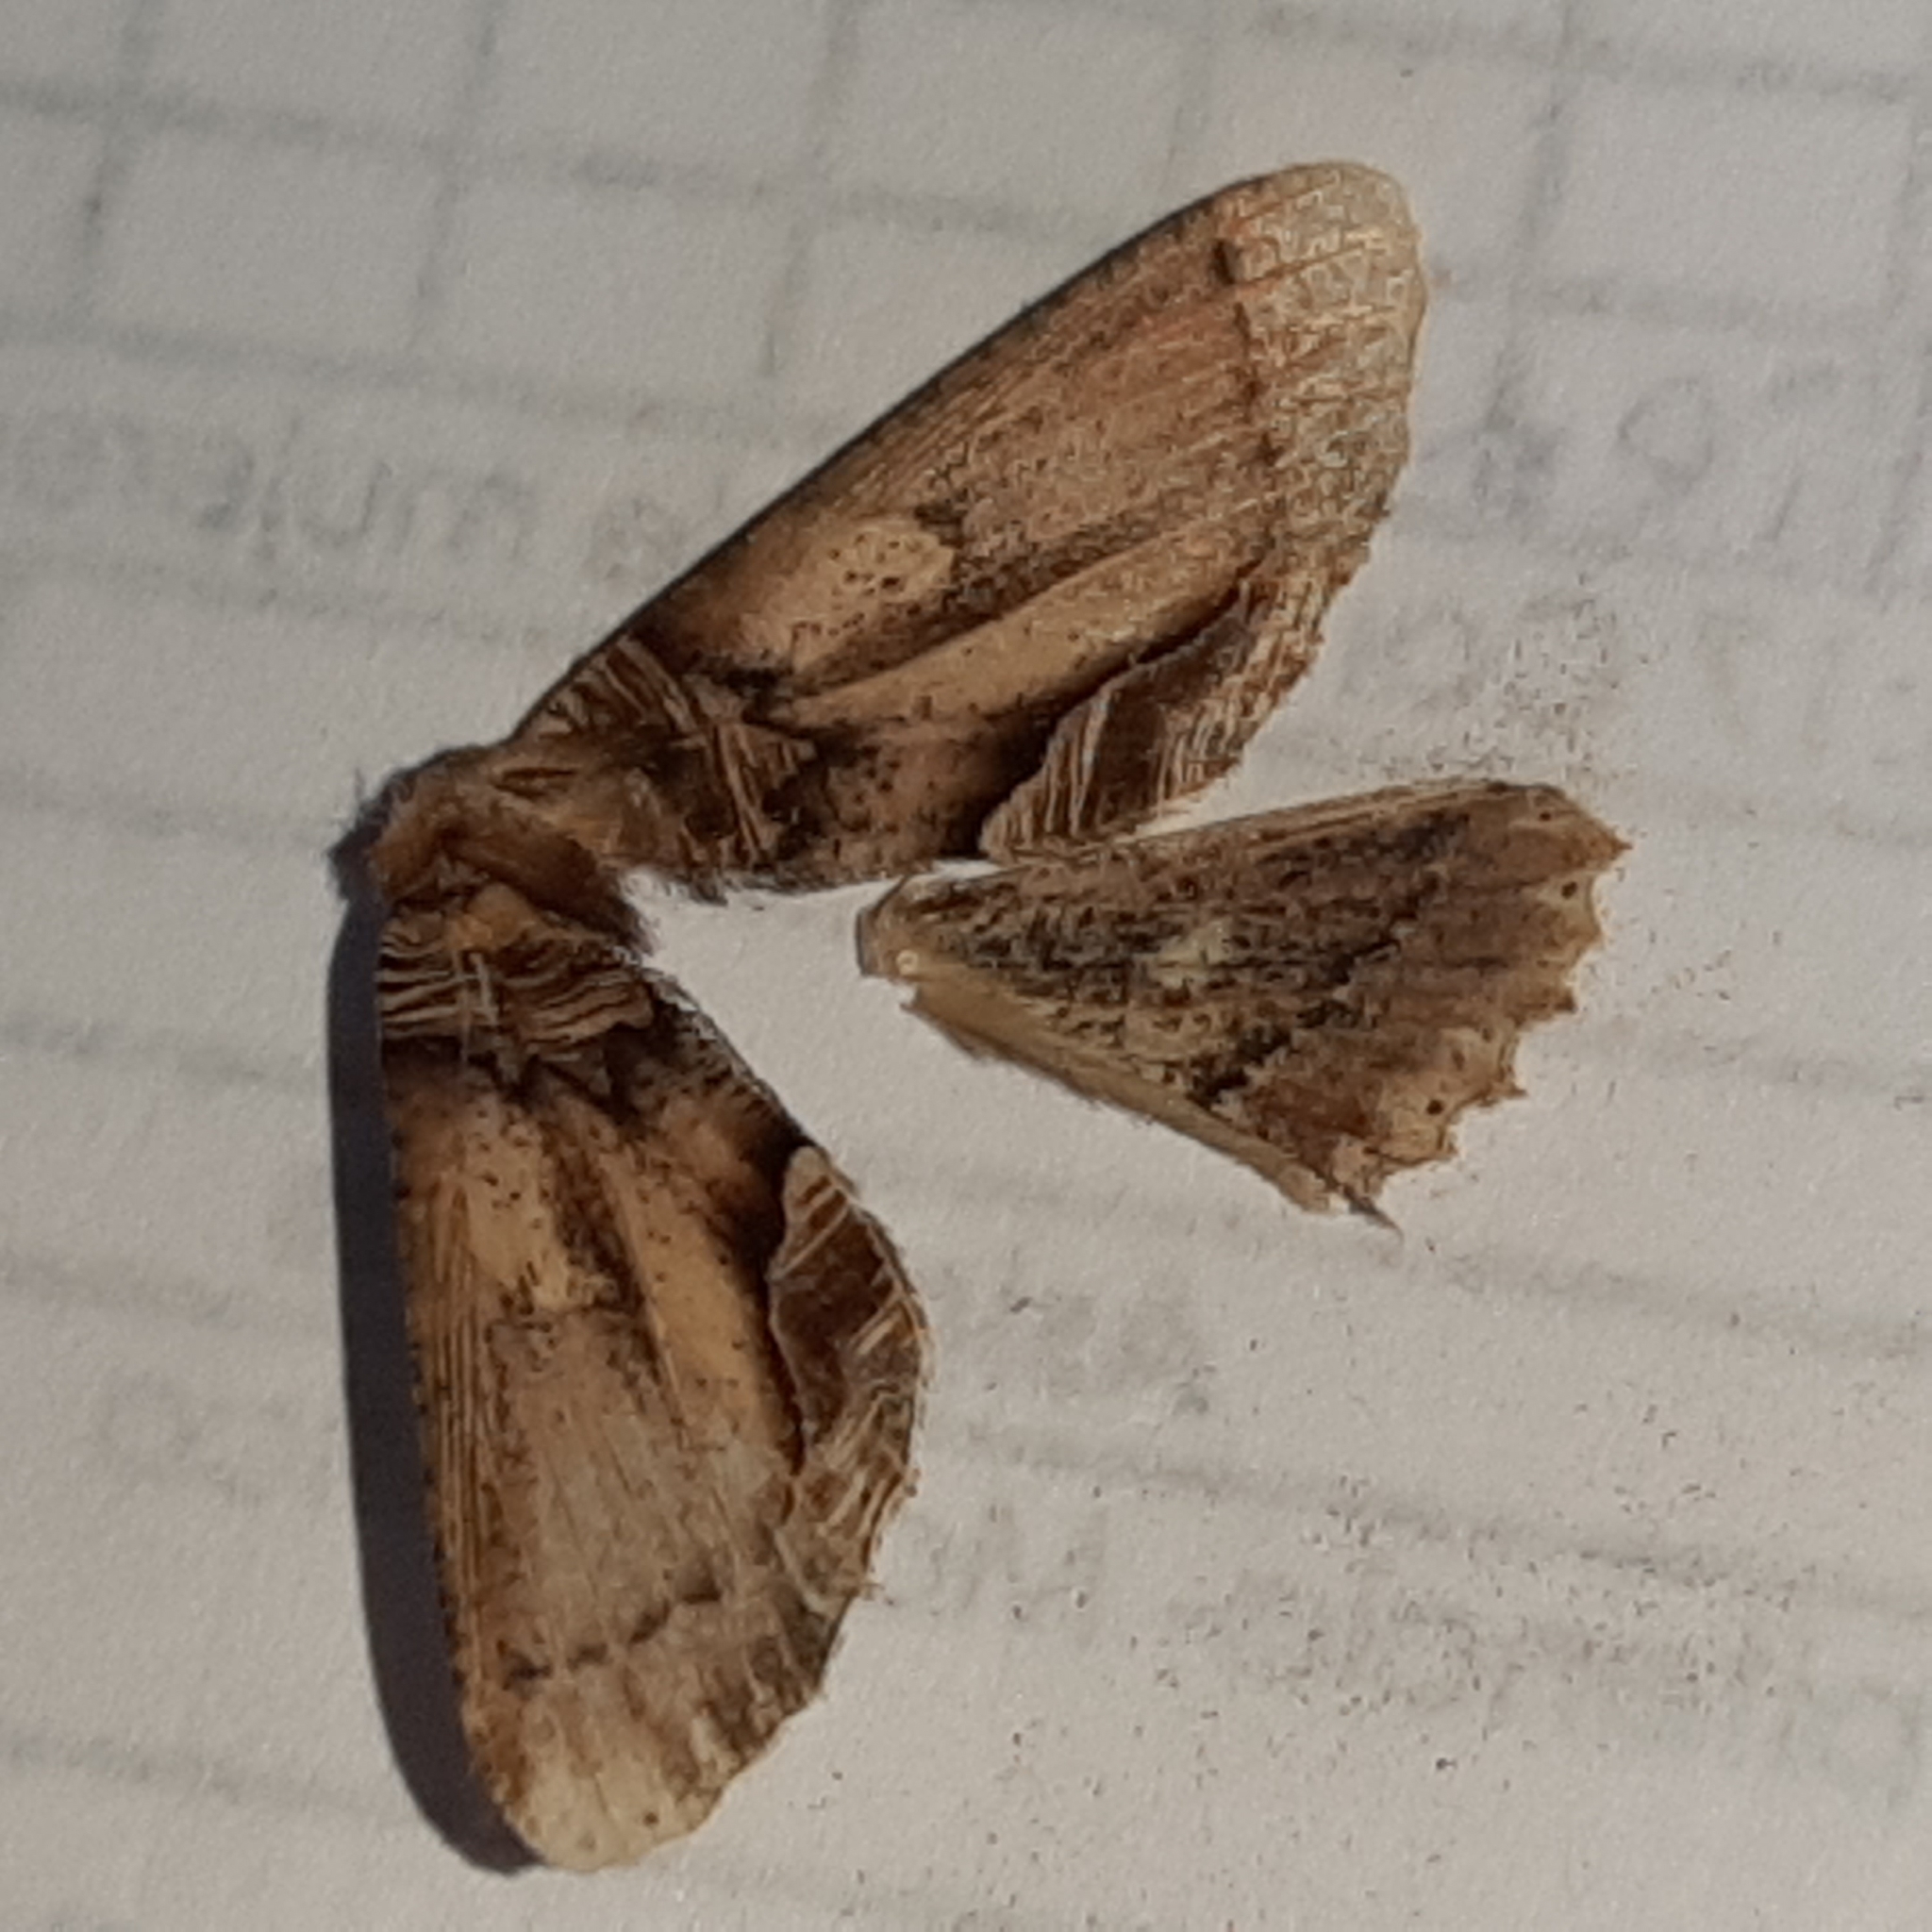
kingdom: Animalia
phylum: Arthropoda
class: Insecta
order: Lepidoptera
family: Geometridae
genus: Pero
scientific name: Pero xylinaria
